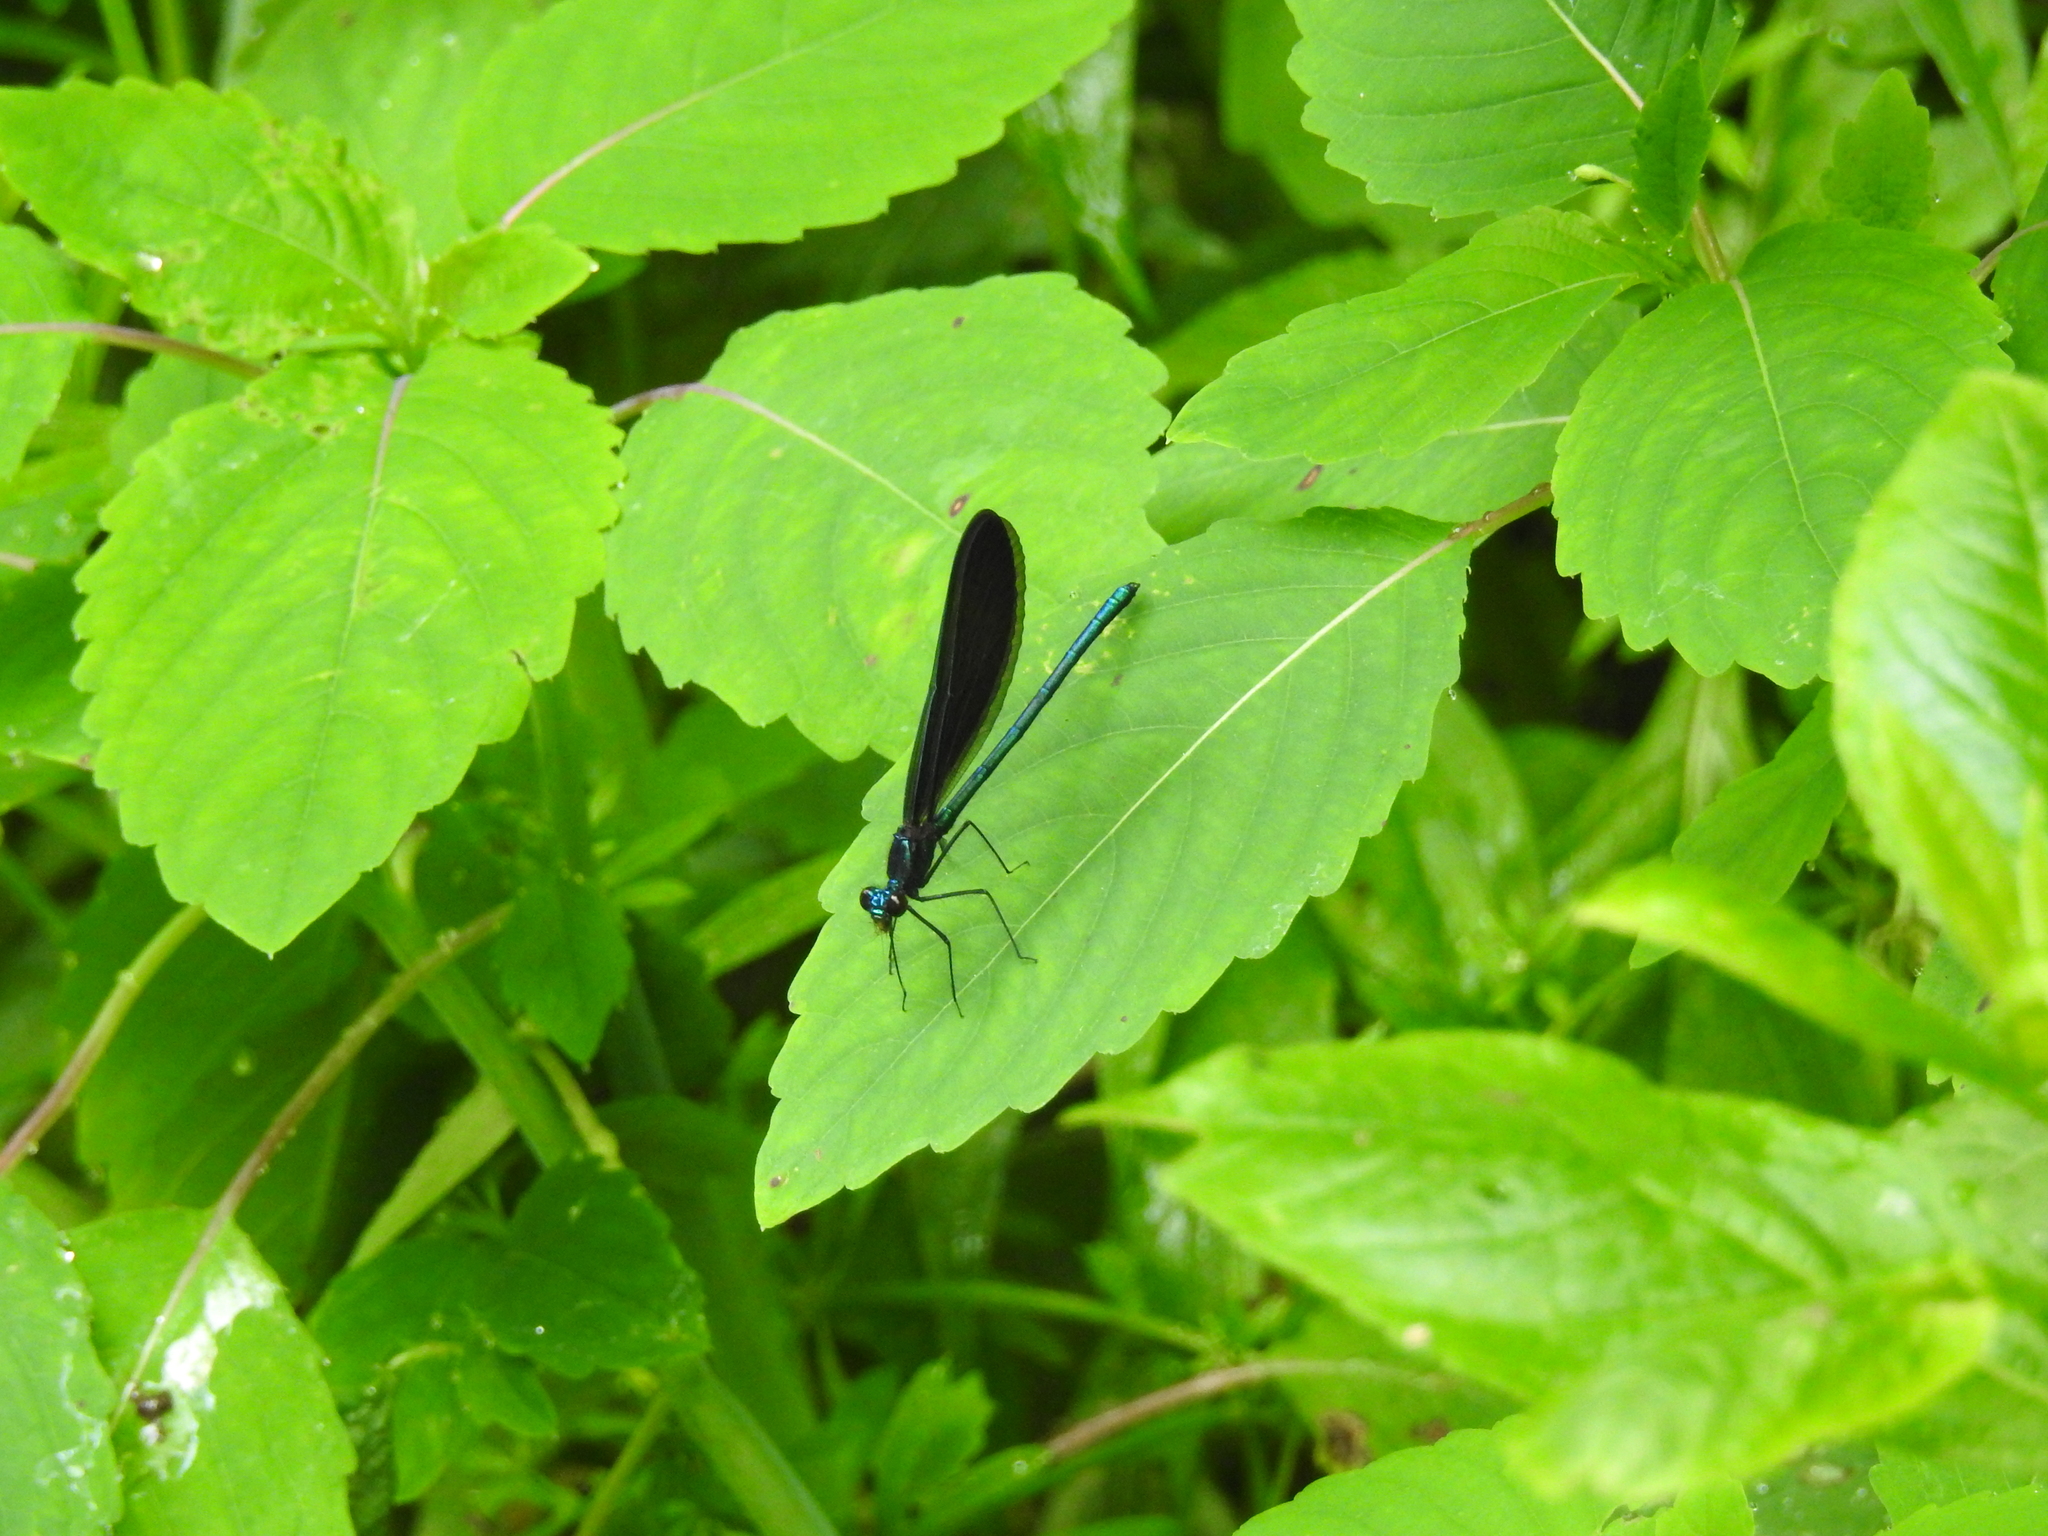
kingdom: Animalia
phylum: Arthropoda
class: Insecta
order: Odonata
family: Calopterygidae
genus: Calopteryx
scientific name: Calopteryx maculata
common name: Ebony jewelwing
